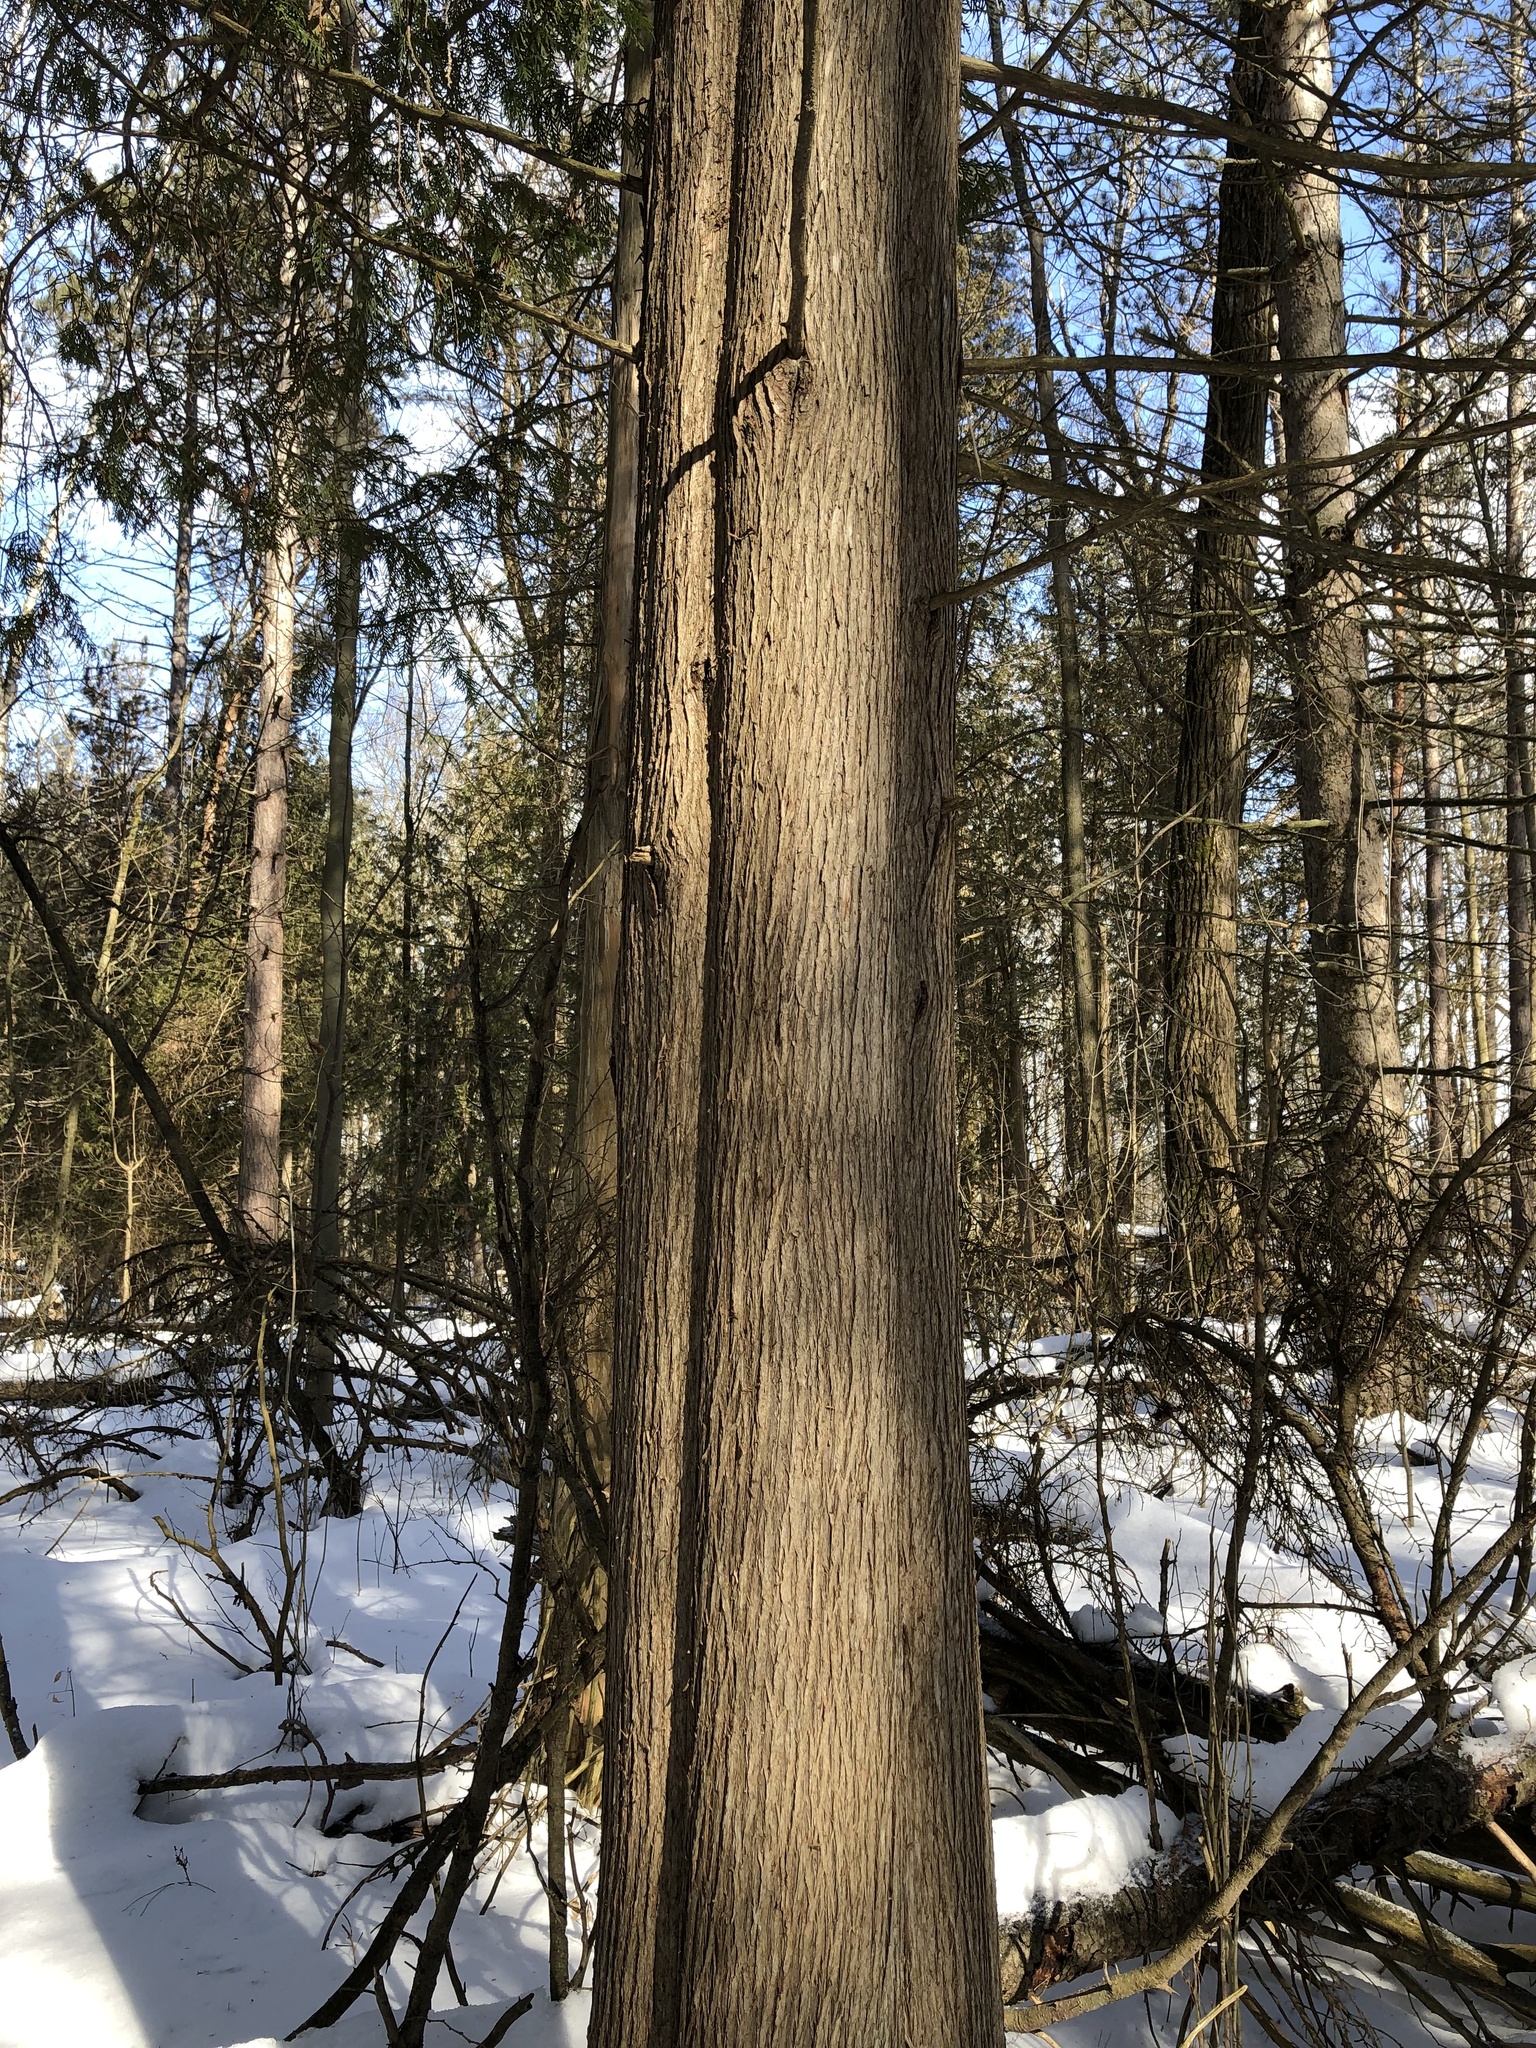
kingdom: Plantae
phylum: Tracheophyta
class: Pinopsida
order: Pinales
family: Cupressaceae
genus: Thuja
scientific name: Thuja occidentalis
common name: Northern white-cedar
